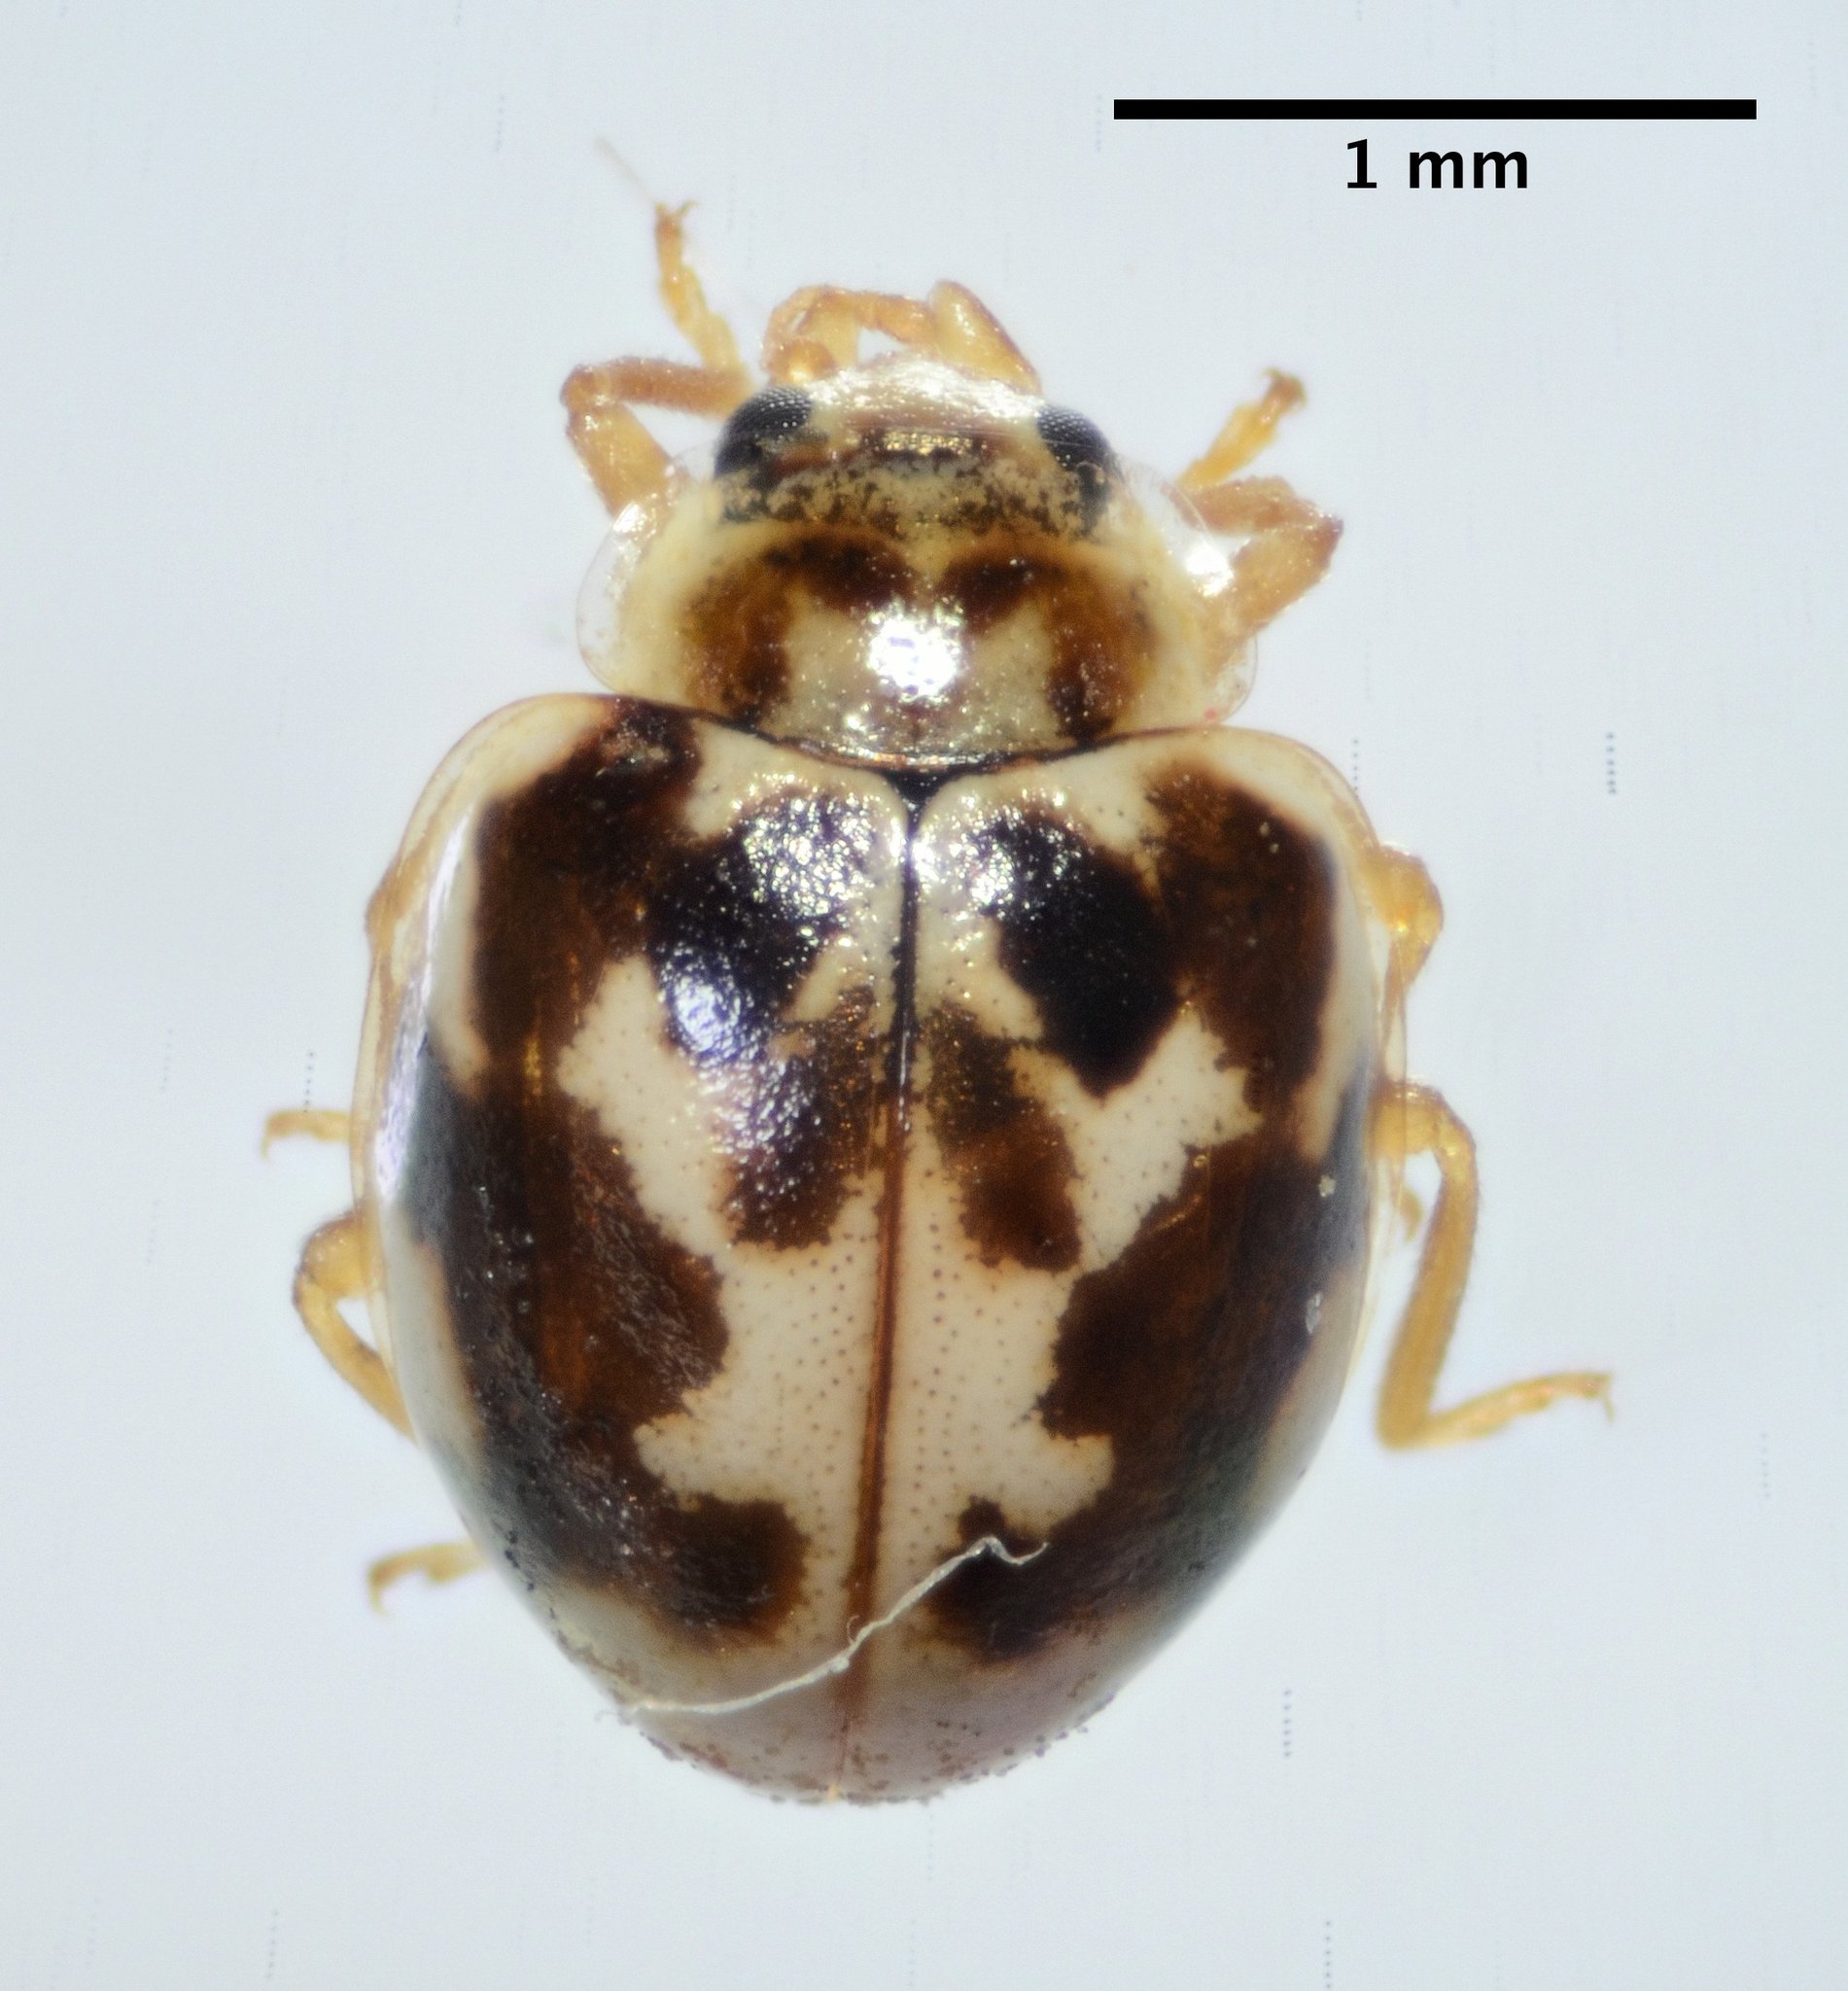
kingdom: Animalia
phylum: Arthropoda
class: Insecta
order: Coleoptera
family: Coccinellidae
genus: Psyllobora
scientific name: Psyllobora vigintimaculata
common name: Ladybird beetle
